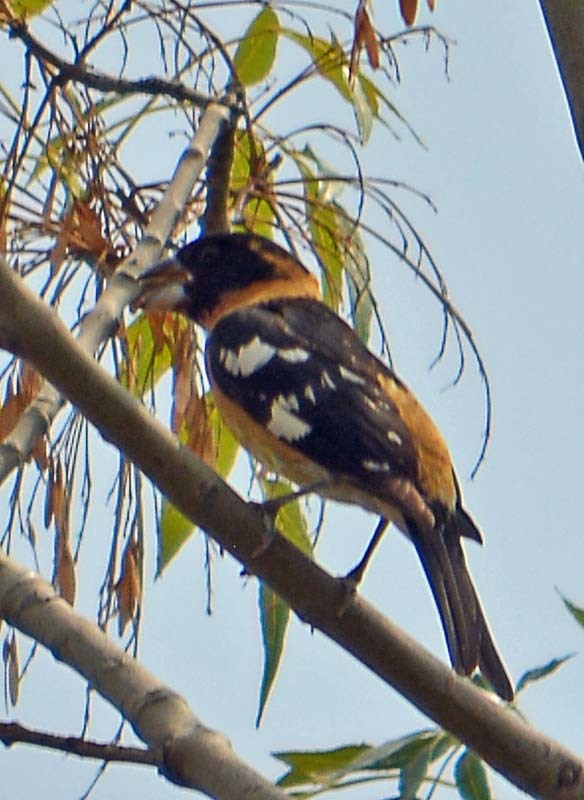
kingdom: Animalia
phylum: Chordata
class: Aves
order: Passeriformes
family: Cardinalidae
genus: Pheucticus
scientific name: Pheucticus melanocephalus
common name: Black-headed grosbeak
